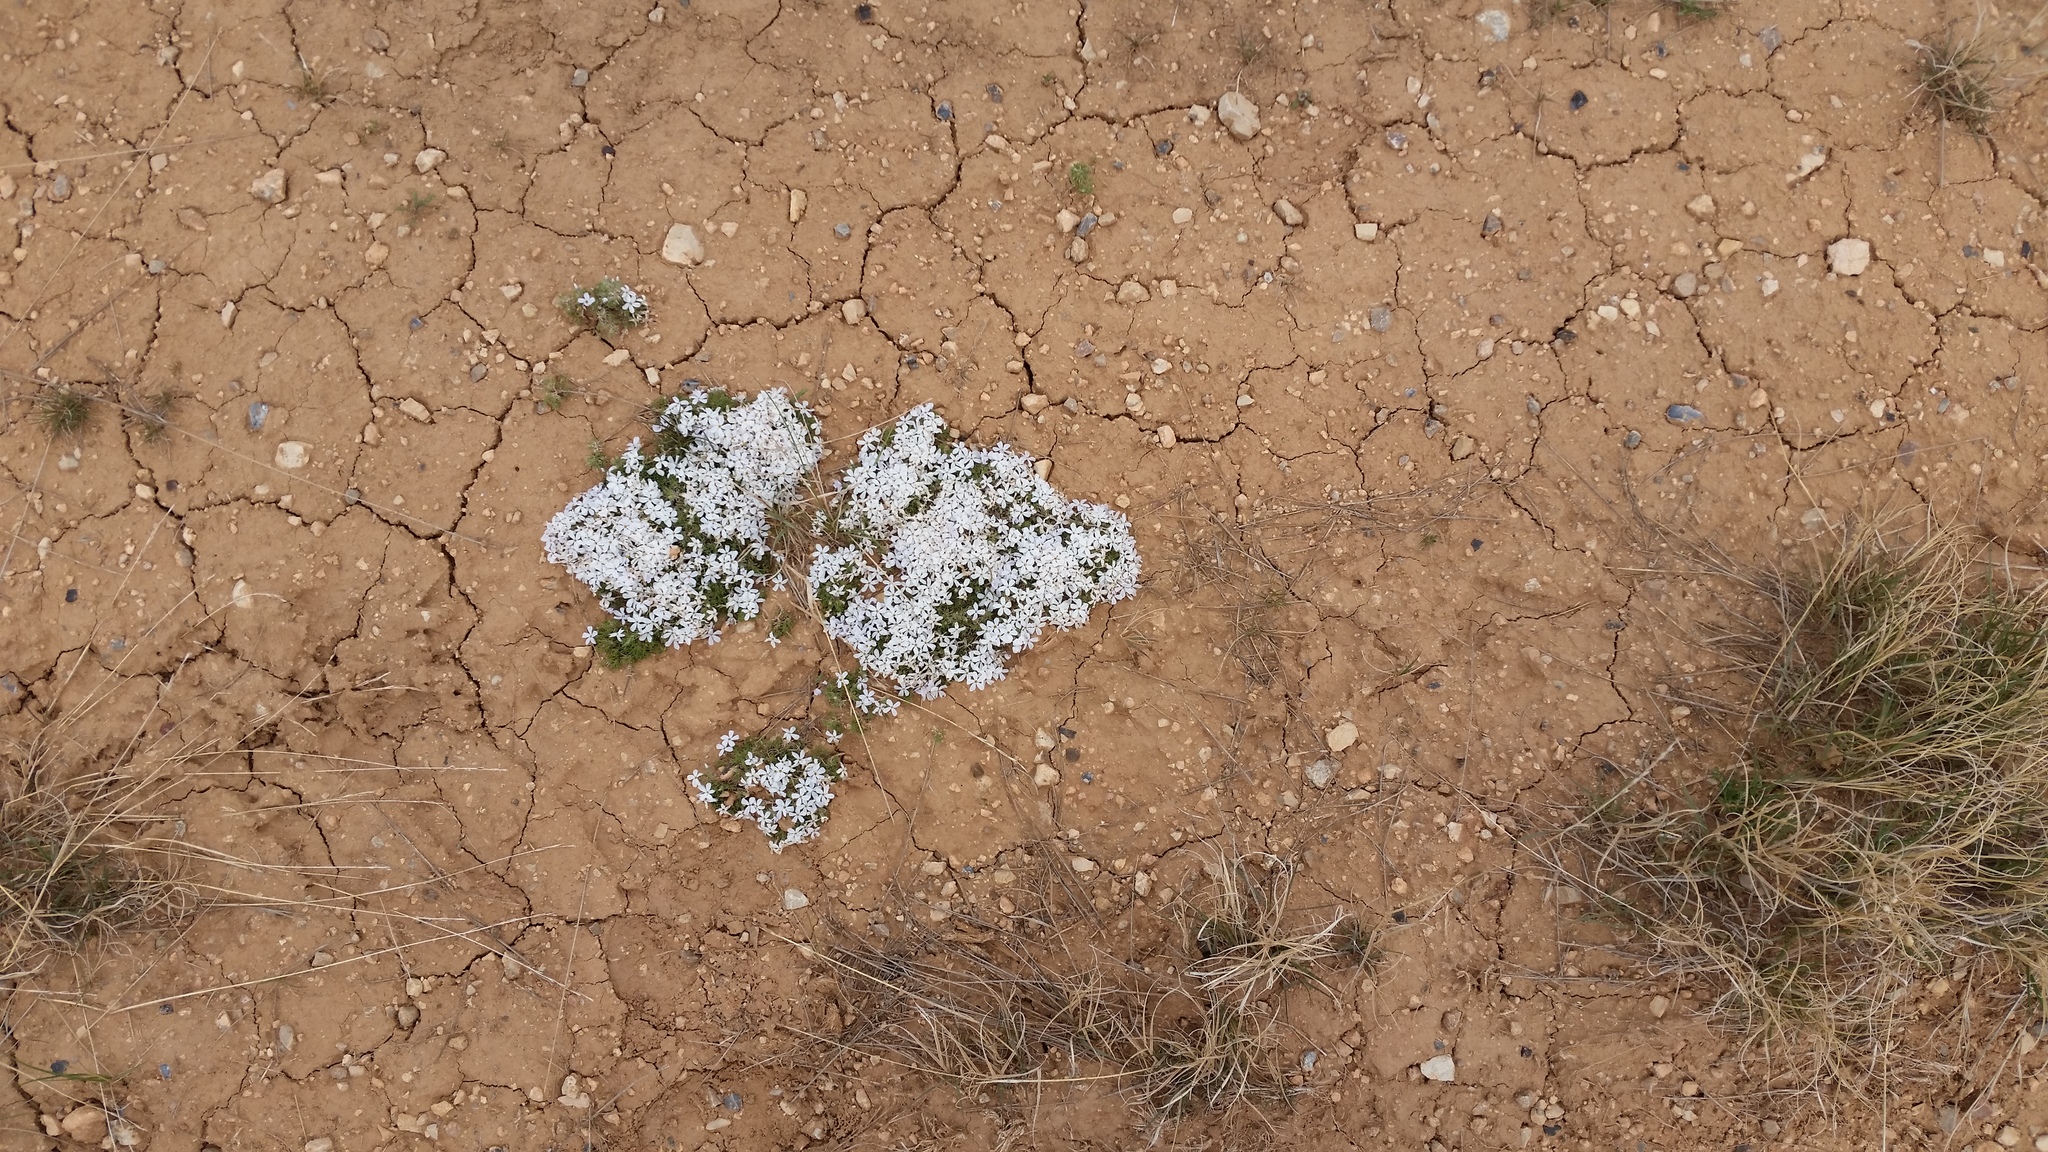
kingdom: Plantae
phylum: Tracheophyta
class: Magnoliopsida
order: Ericales
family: Polemoniaceae
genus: Phlox
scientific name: Phlox hoodii
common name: Moss phlox
